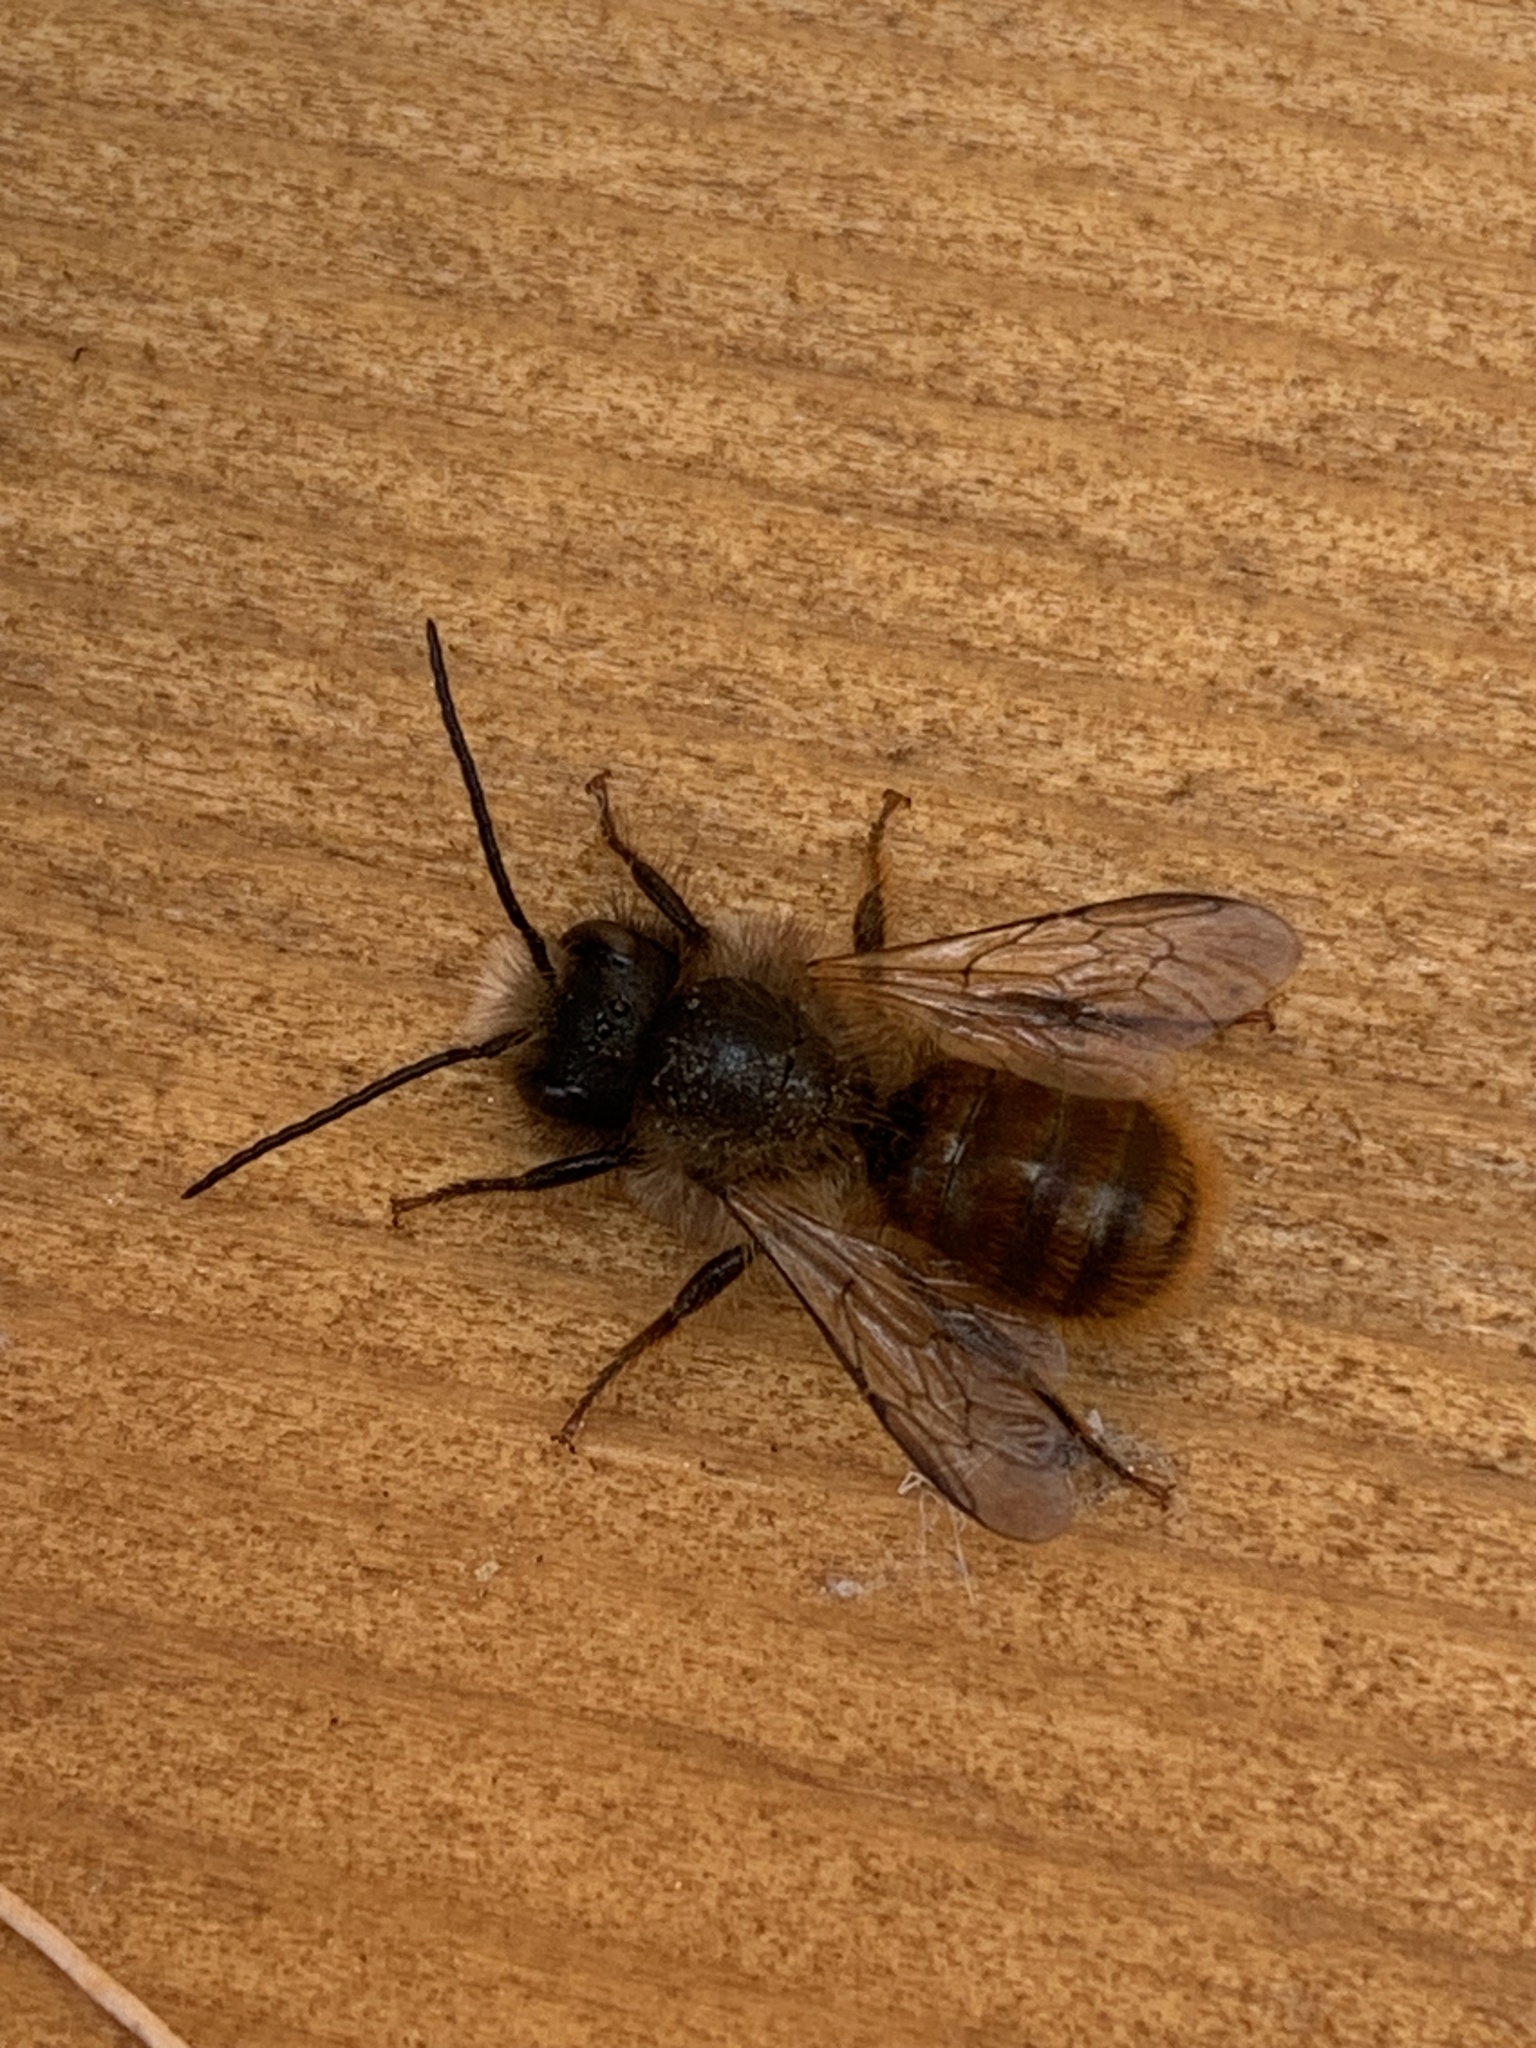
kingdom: Animalia
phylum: Arthropoda
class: Insecta
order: Hymenoptera
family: Megachilidae
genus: Osmia
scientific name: Osmia bicornis
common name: Red mason bee
